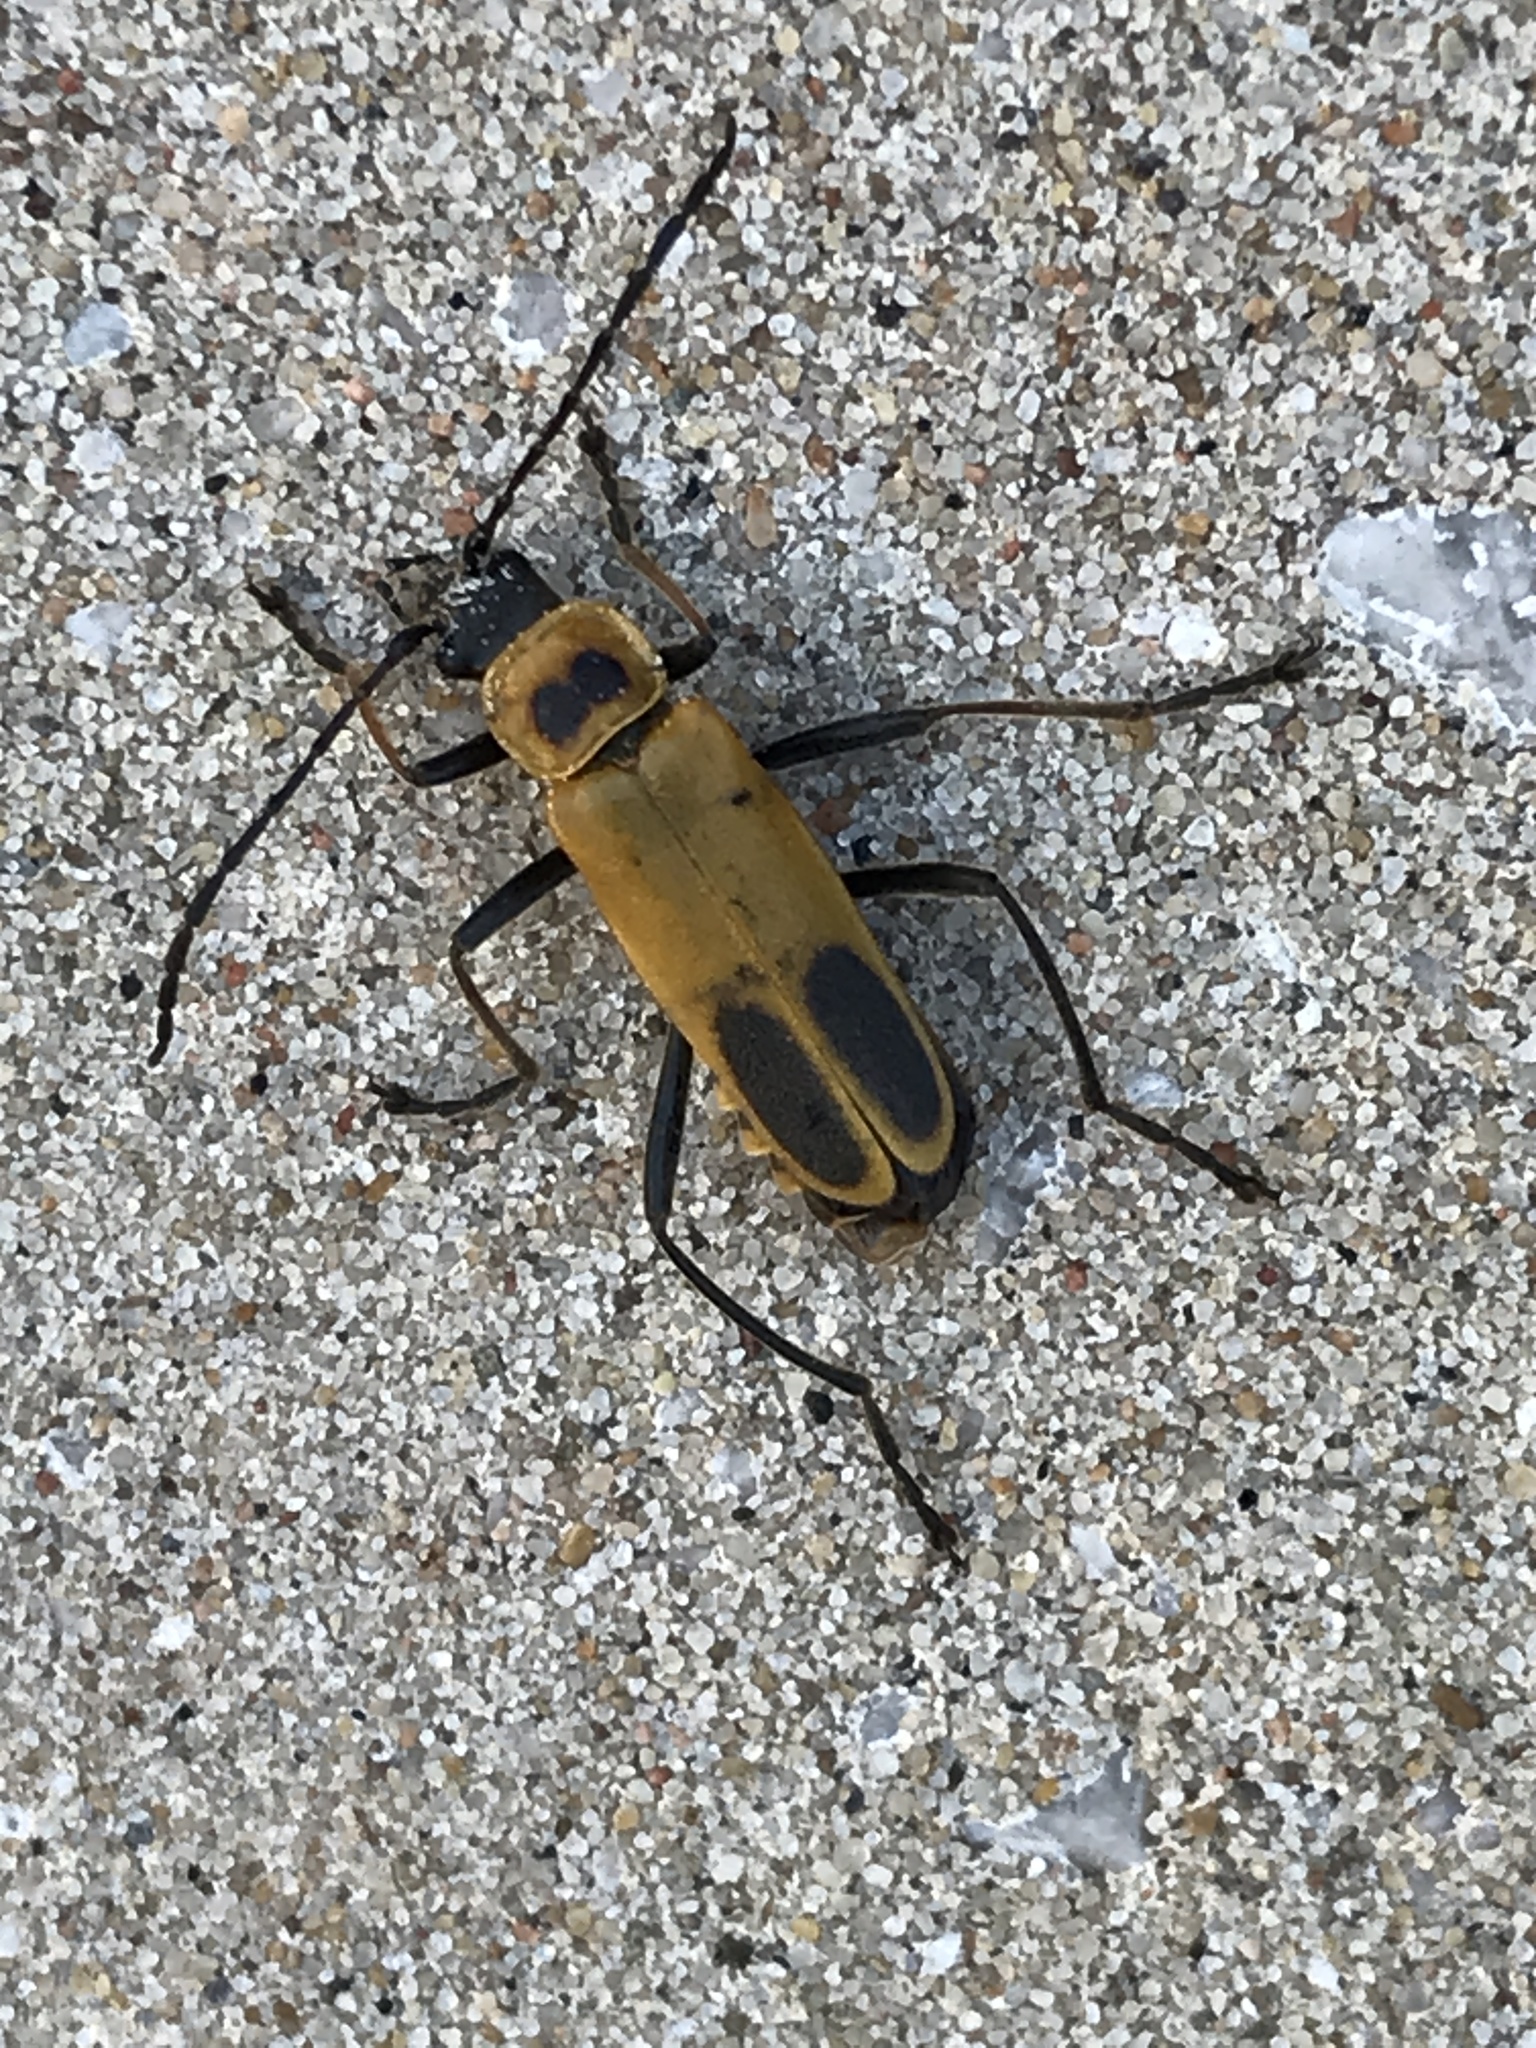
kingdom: Animalia
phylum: Arthropoda
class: Insecta
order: Coleoptera
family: Cantharidae
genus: Chauliognathus
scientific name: Chauliognathus pensylvanicus
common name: Goldenrod soldier beetle
